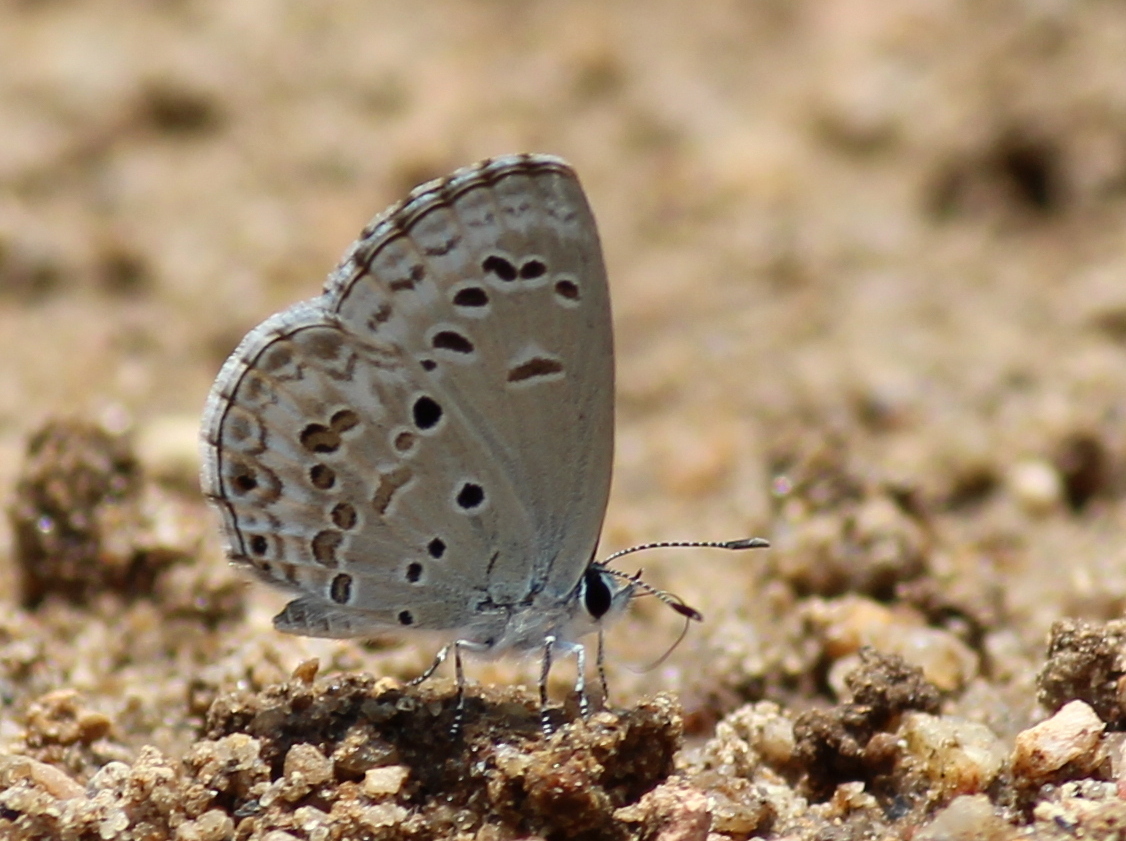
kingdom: Animalia
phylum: Arthropoda
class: Insecta
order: Lepidoptera
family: Lycaenidae
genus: Chilades
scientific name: Chilades laius
